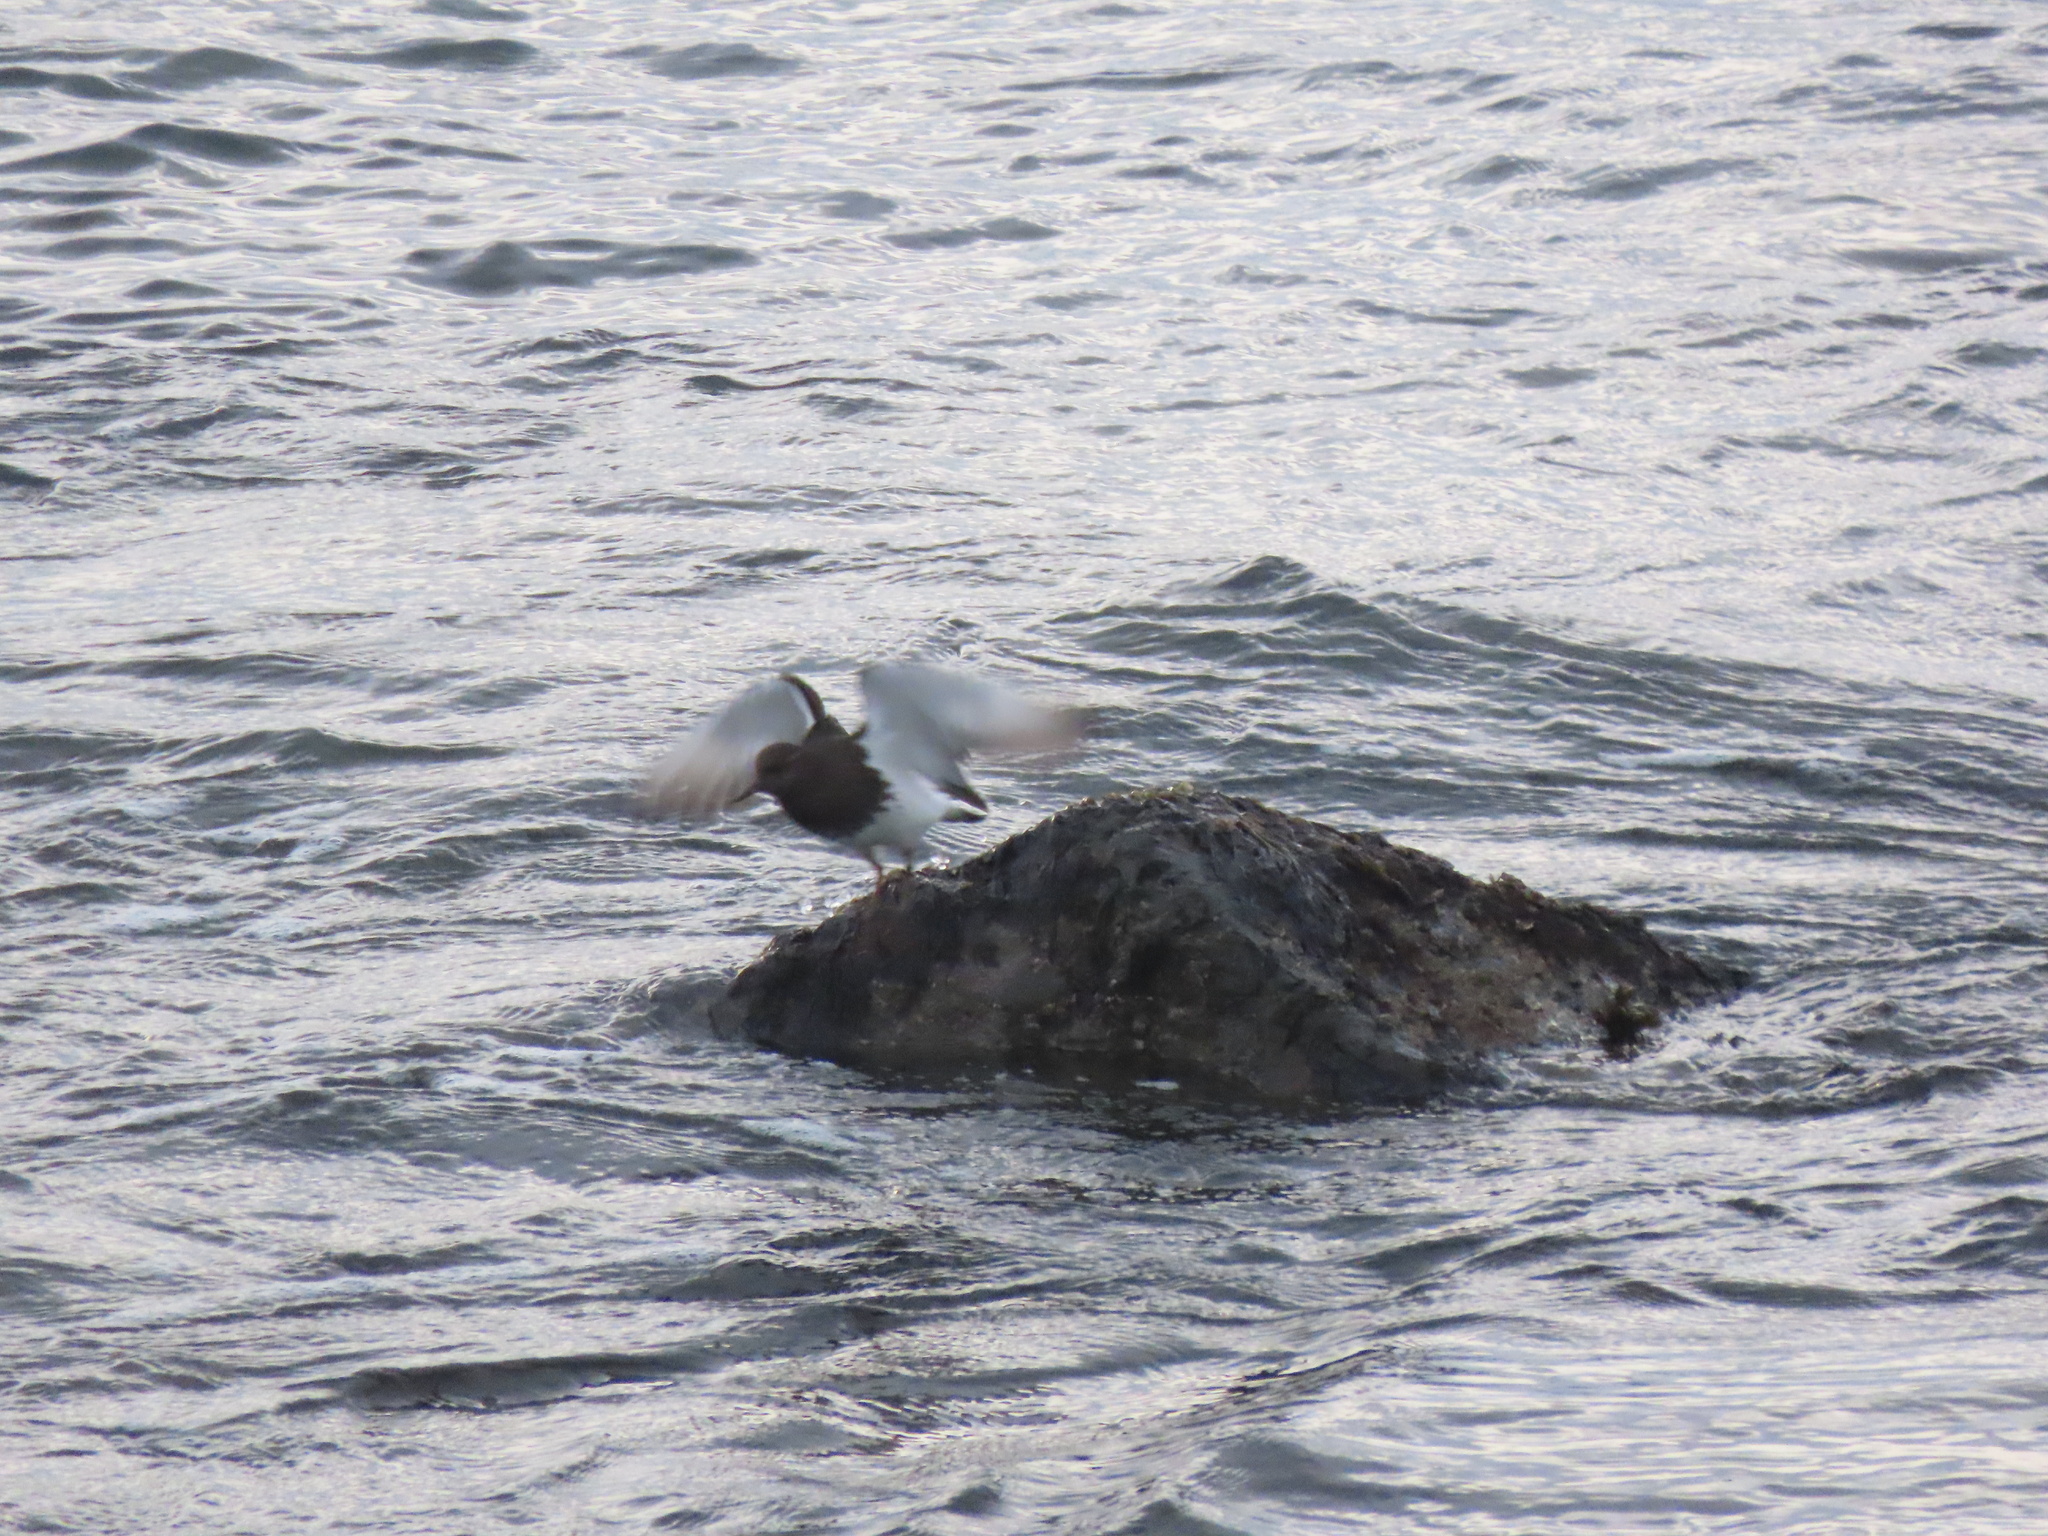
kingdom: Animalia
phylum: Chordata
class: Aves
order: Charadriiformes
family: Scolopacidae
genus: Arenaria
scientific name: Arenaria melanocephala
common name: Black turnstone
